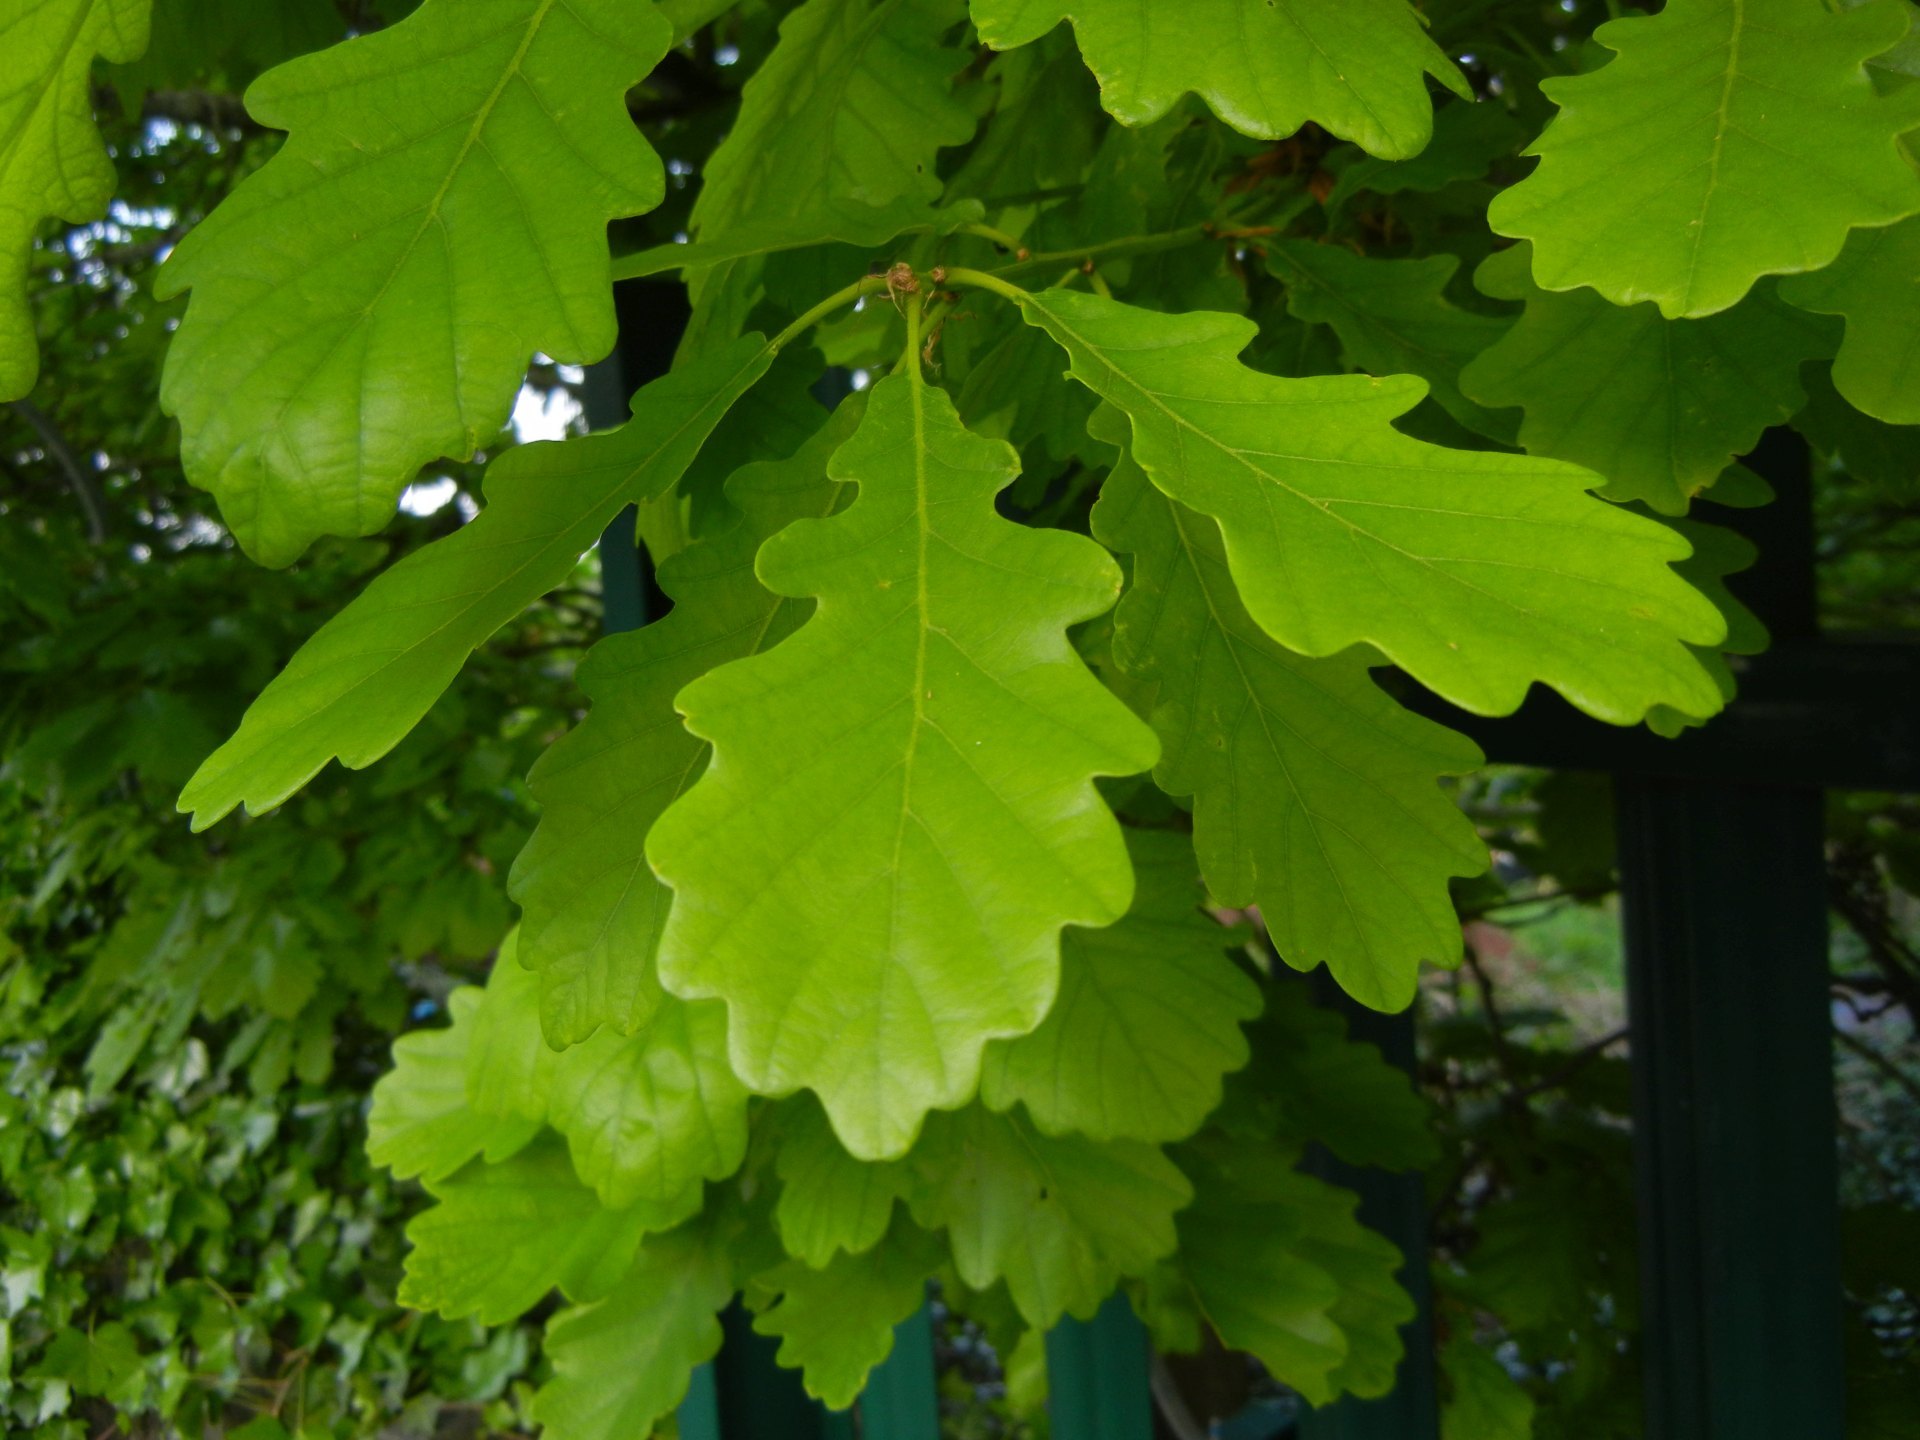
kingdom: Plantae
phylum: Tracheophyta
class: Magnoliopsida
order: Fagales
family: Fagaceae
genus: Quercus
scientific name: Quercus petraea
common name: Sessile oak
